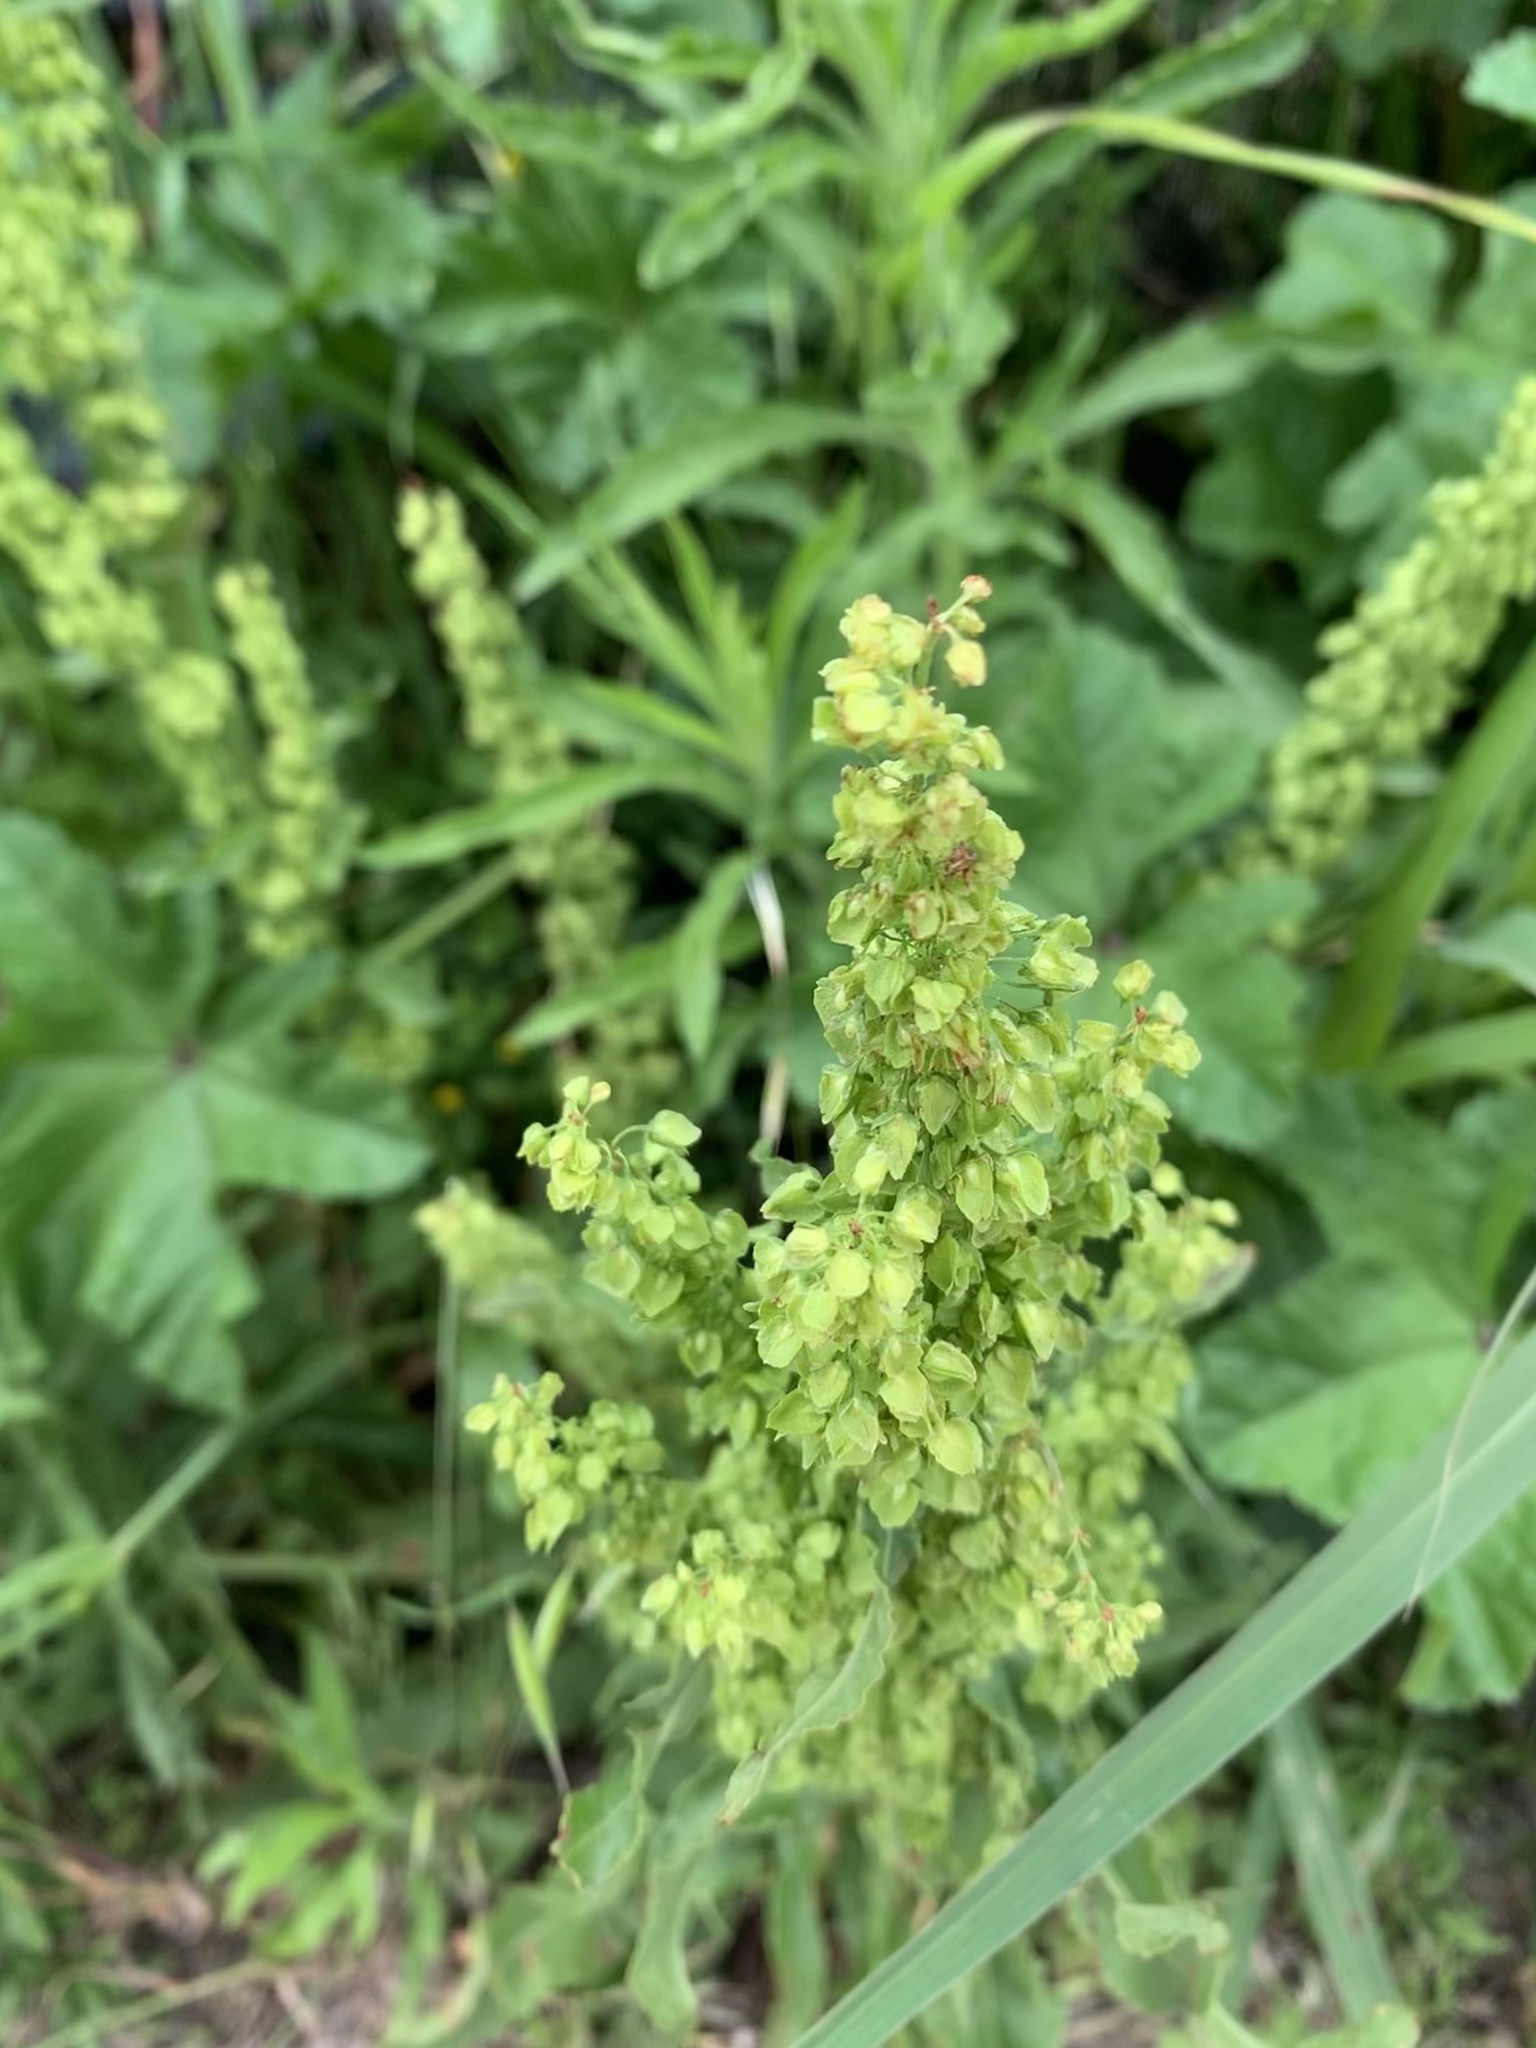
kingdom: Plantae
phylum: Tracheophyta
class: Magnoliopsida
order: Caryophyllales
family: Polygonaceae
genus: Rumex
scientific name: Rumex crispus
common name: Curled dock
